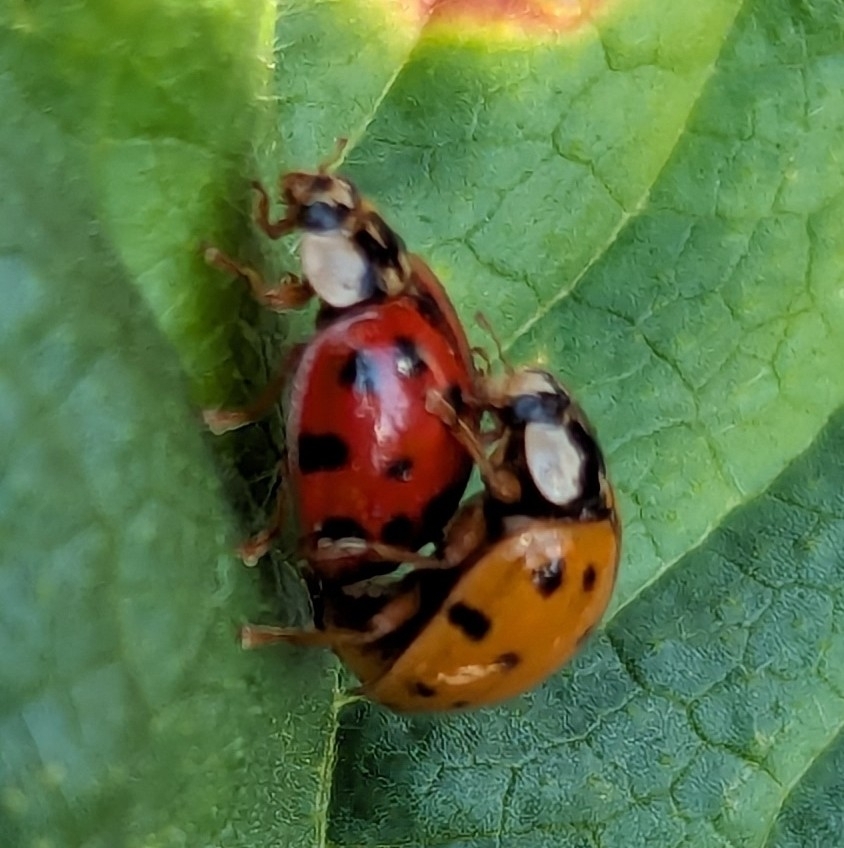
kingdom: Animalia
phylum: Arthropoda
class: Insecta
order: Coleoptera
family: Coccinellidae
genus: Harmonia
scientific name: Harmonia axyridis
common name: Harlequin ladybird
